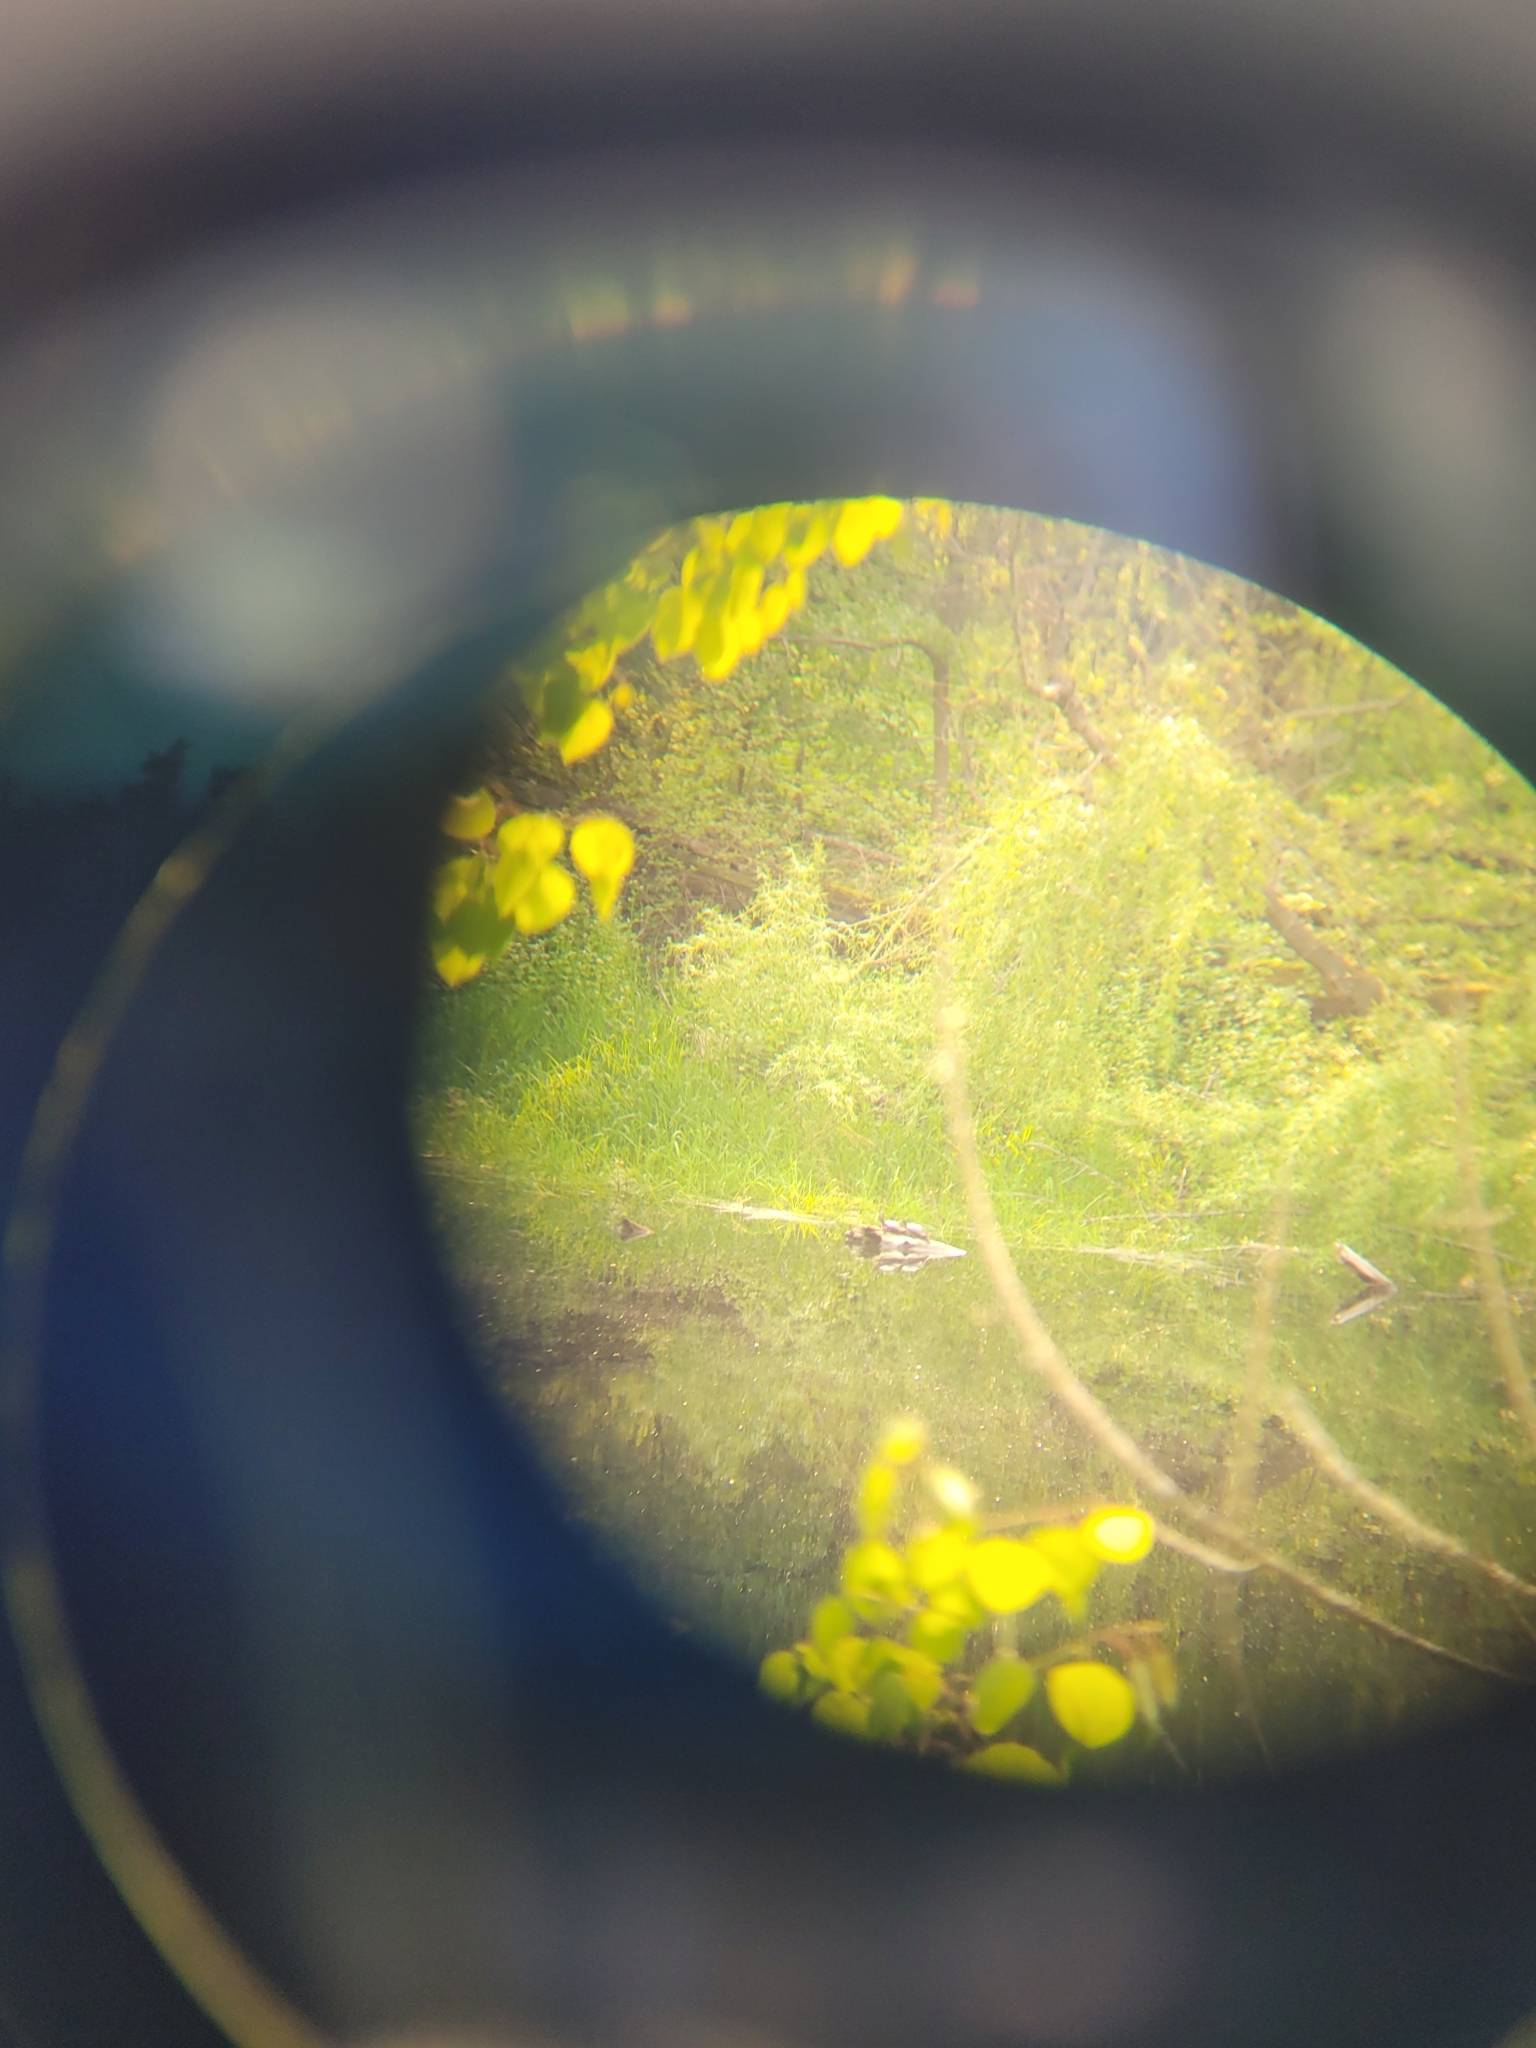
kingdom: Animalia
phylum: Chordata
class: Testudines
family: Emydidae
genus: Chrysemys
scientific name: Chrysemys picta
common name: Painted turtle
